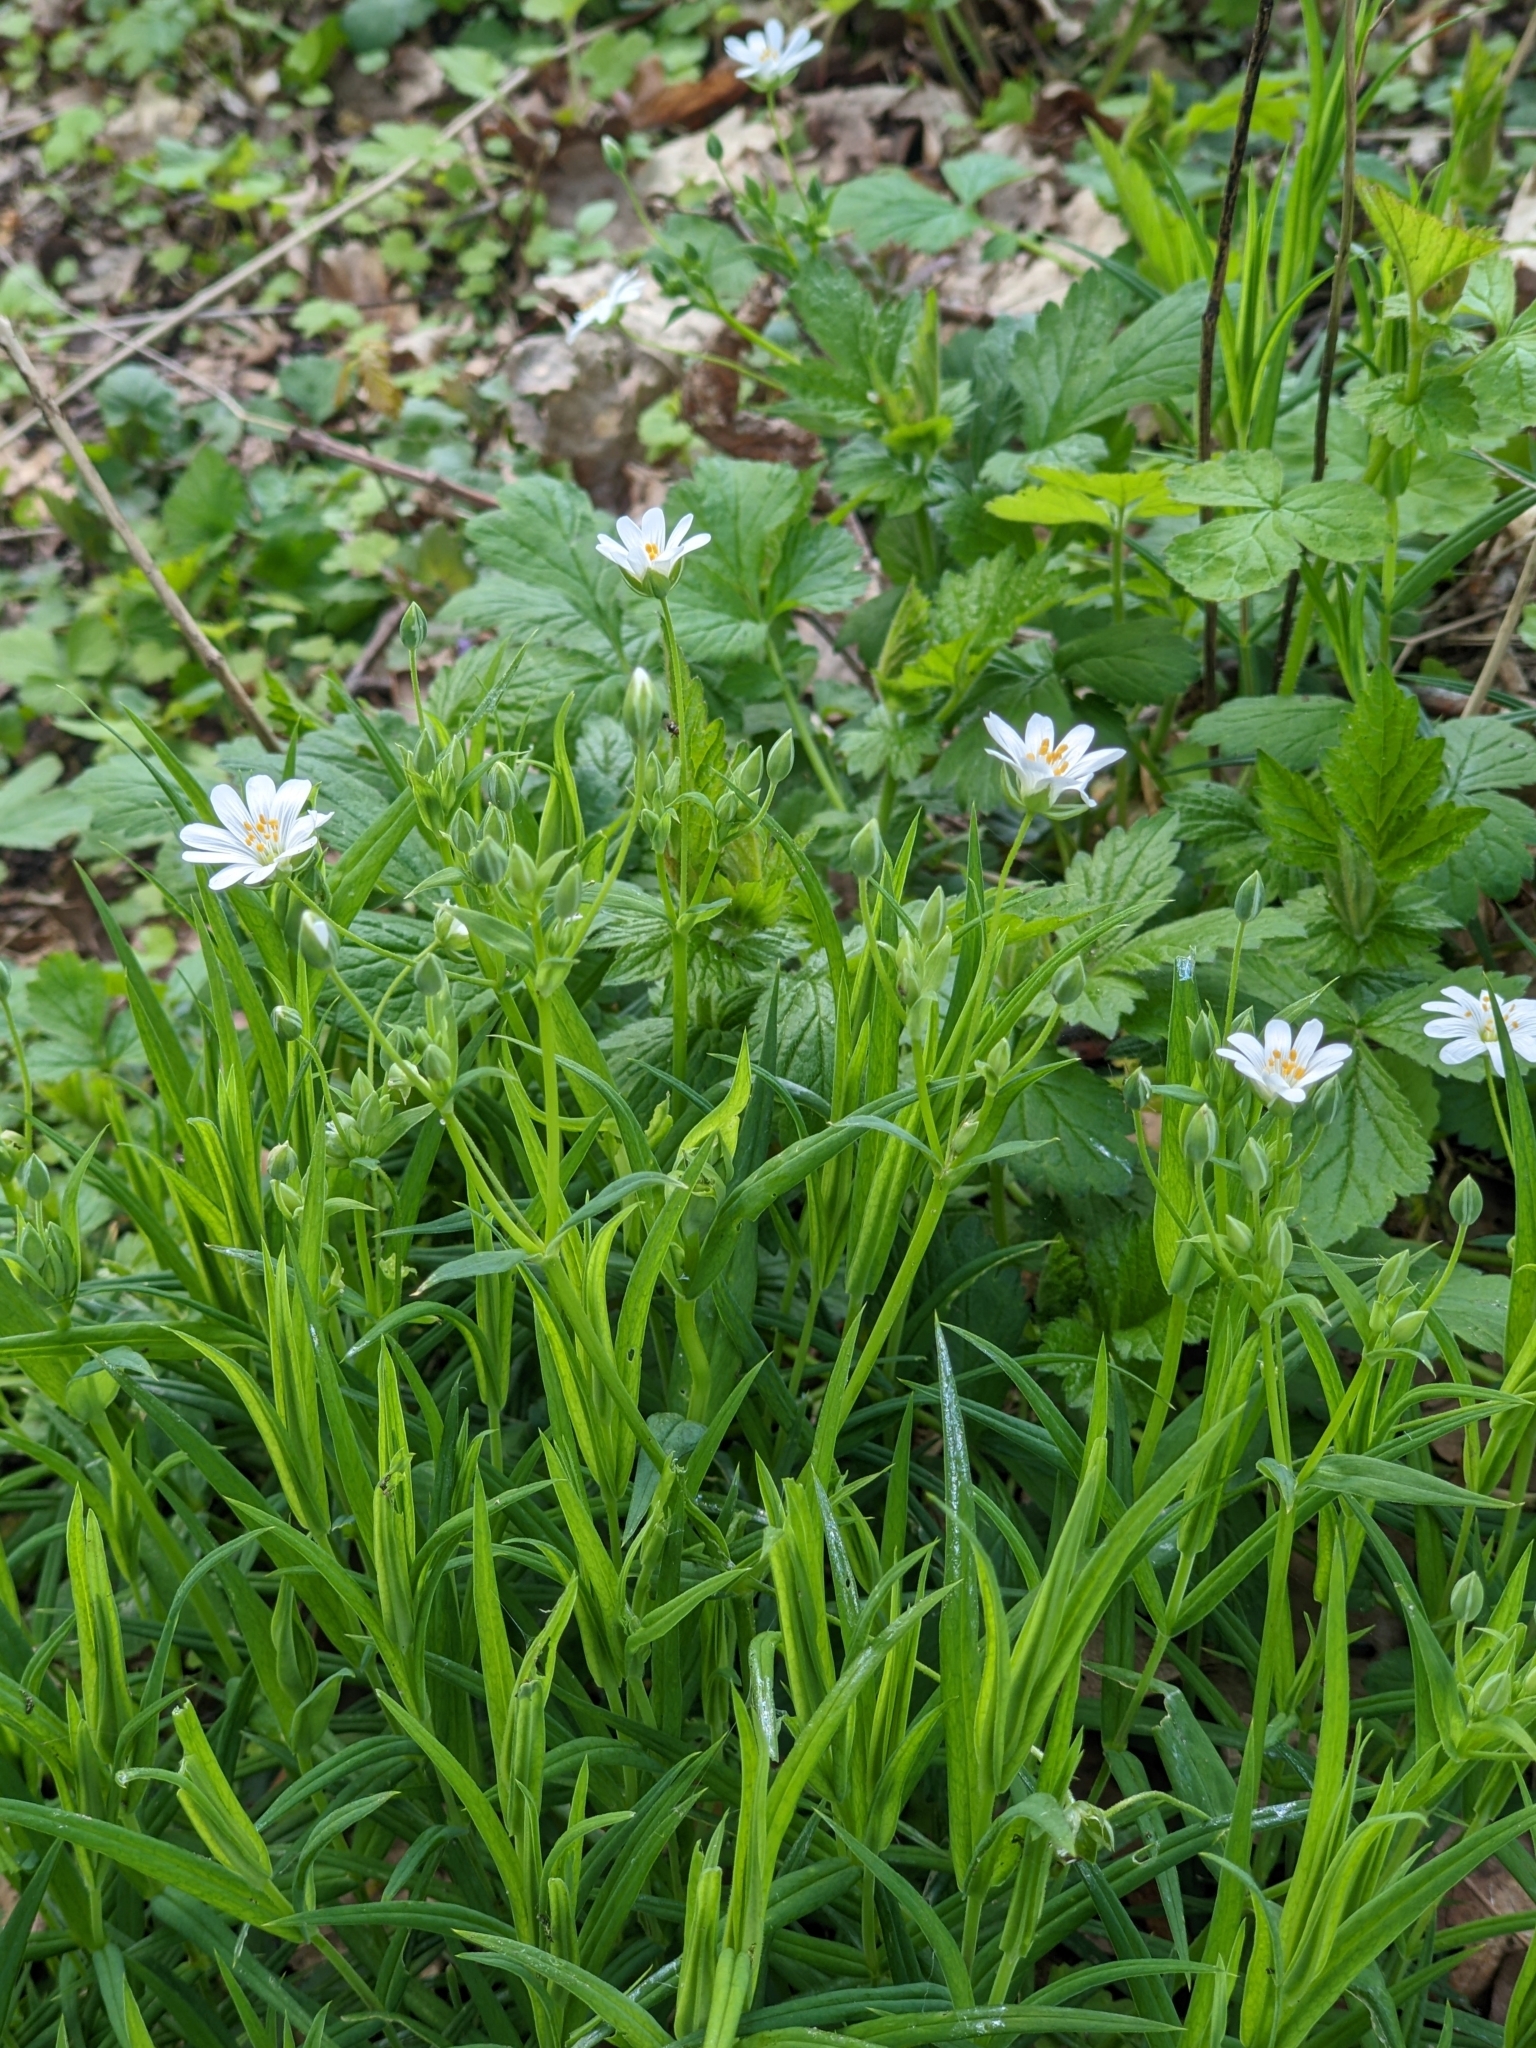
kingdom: Plantae
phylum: Tracheophyta
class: Magnoliopsida
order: Caryophyllales
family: Caryophyllaceae
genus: Rabelera
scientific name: Rabelera holostea
